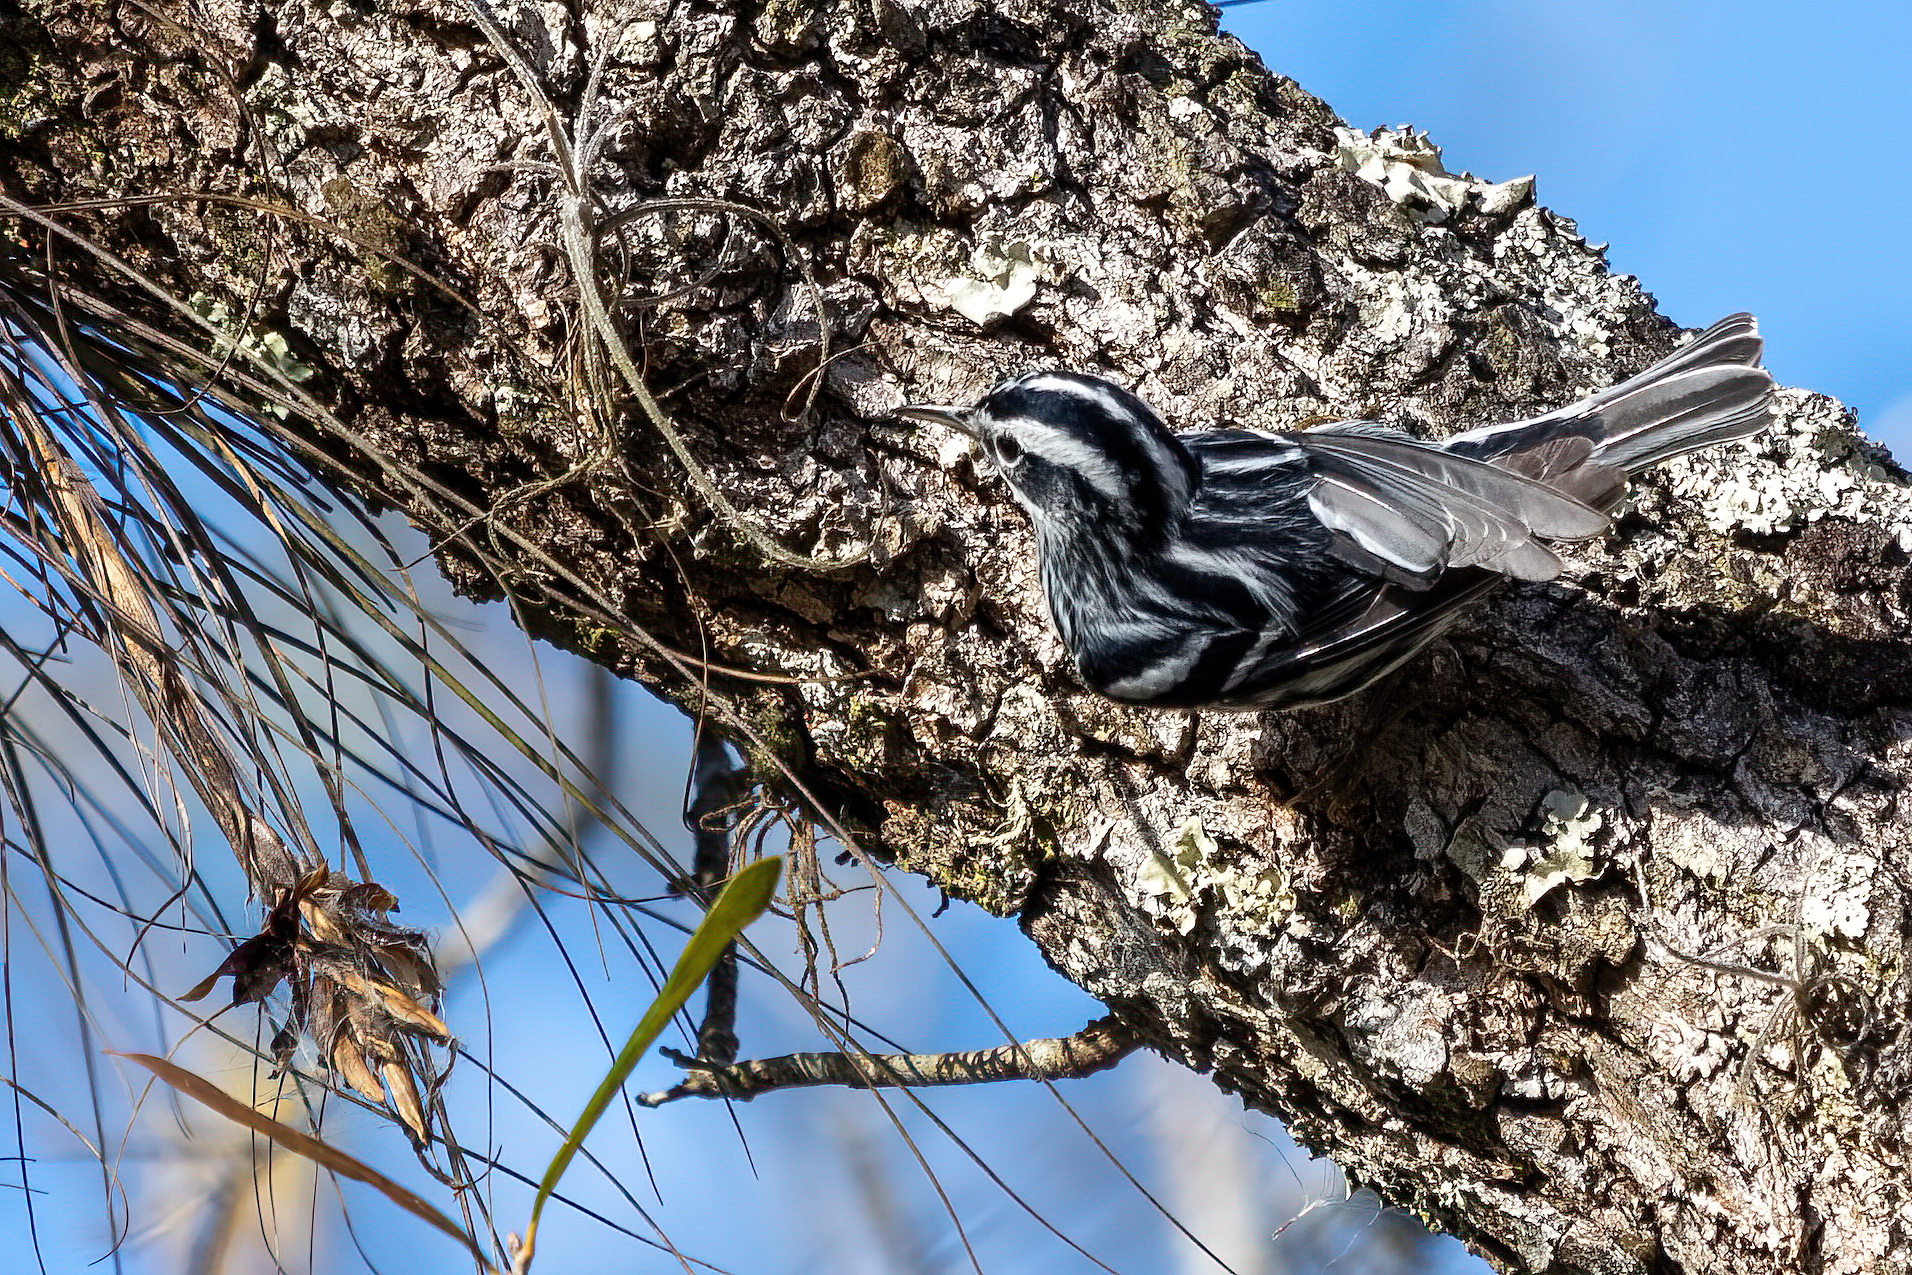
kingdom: Animalia
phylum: Chordata
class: Aves
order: Passeriformes
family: Parulidae
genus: Mniotilta
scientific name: Mniotilta varia
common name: Black-and-white warbler
